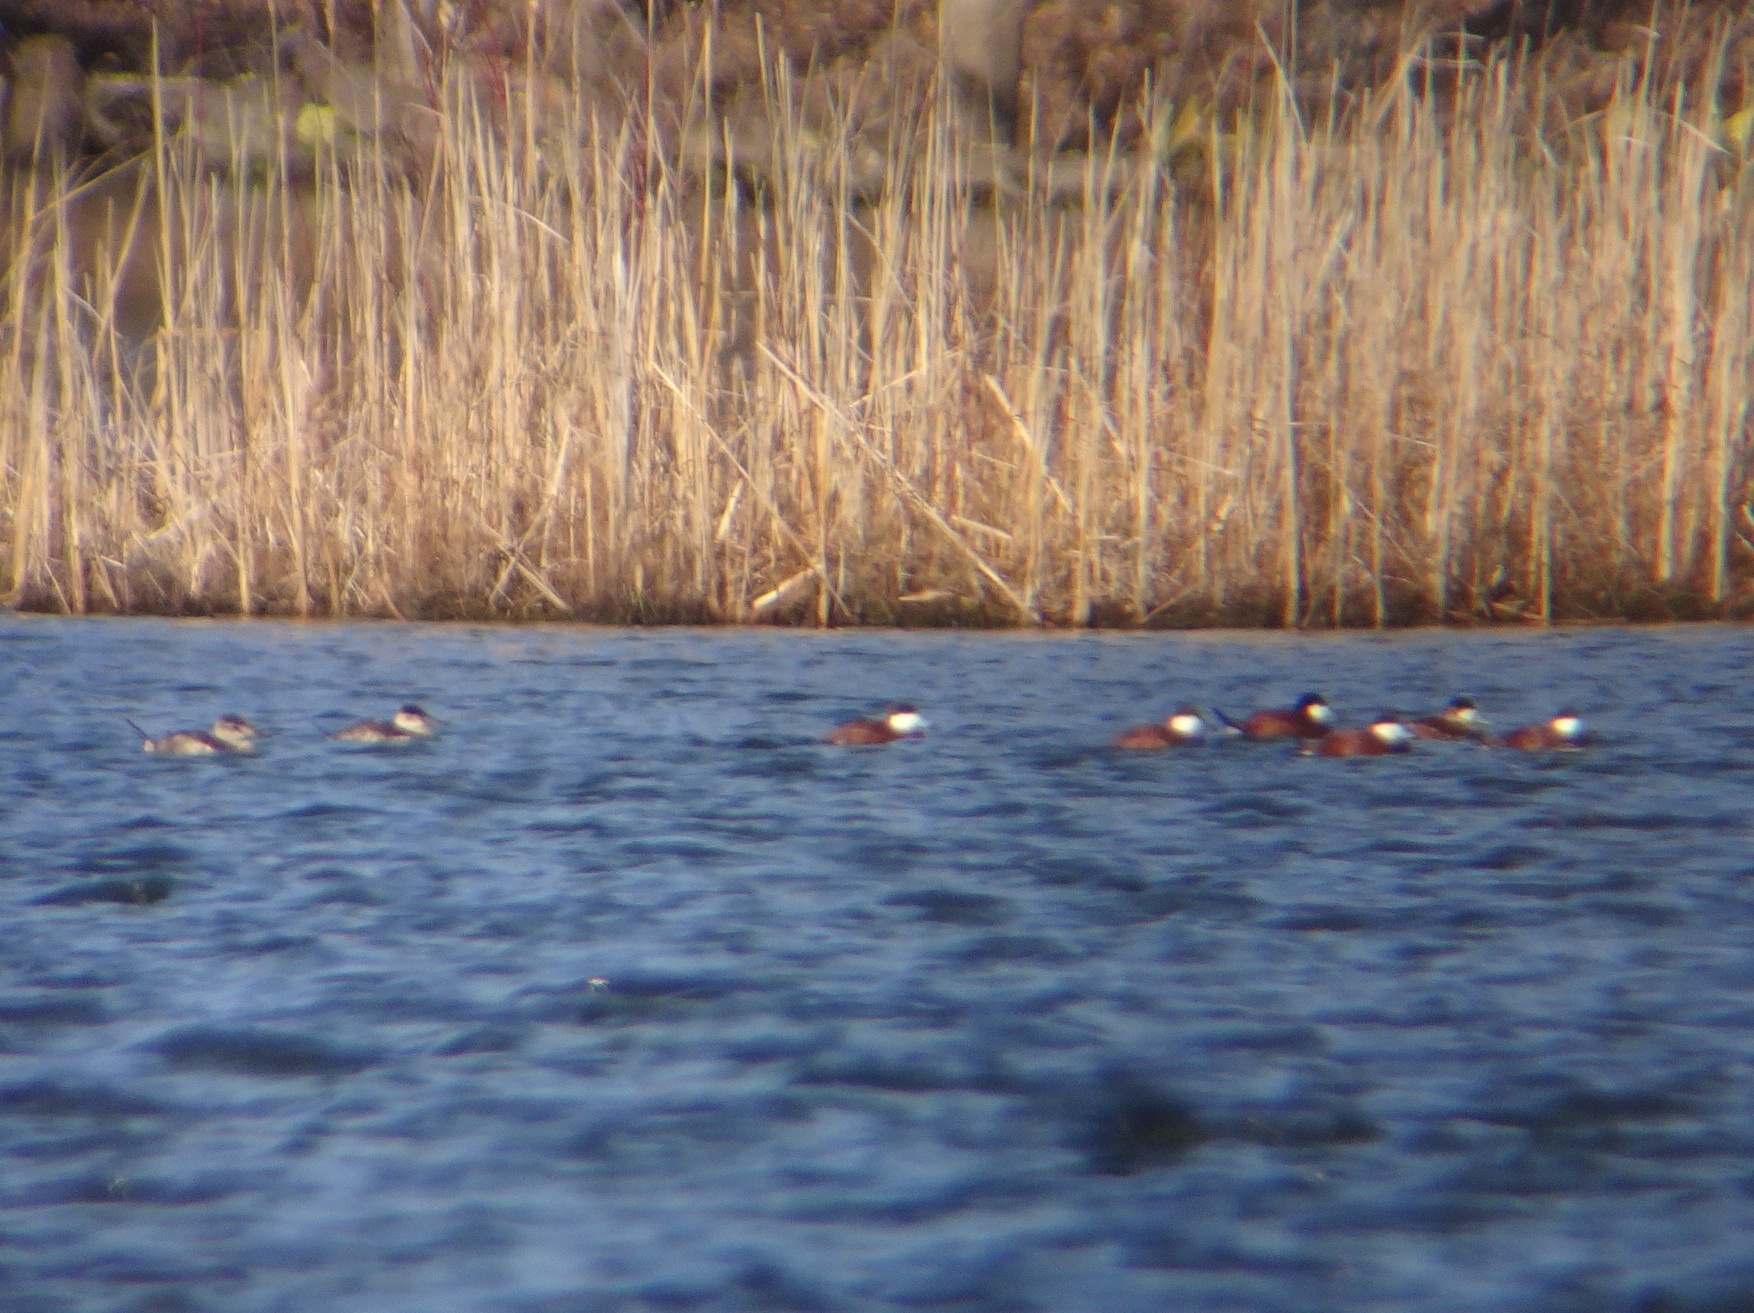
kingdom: Animalia
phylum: Chordata
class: Aves
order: Anseriformes
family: Anatidae
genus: Oxyura
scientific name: Oxyura jamaicensis
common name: Ruddy duck
